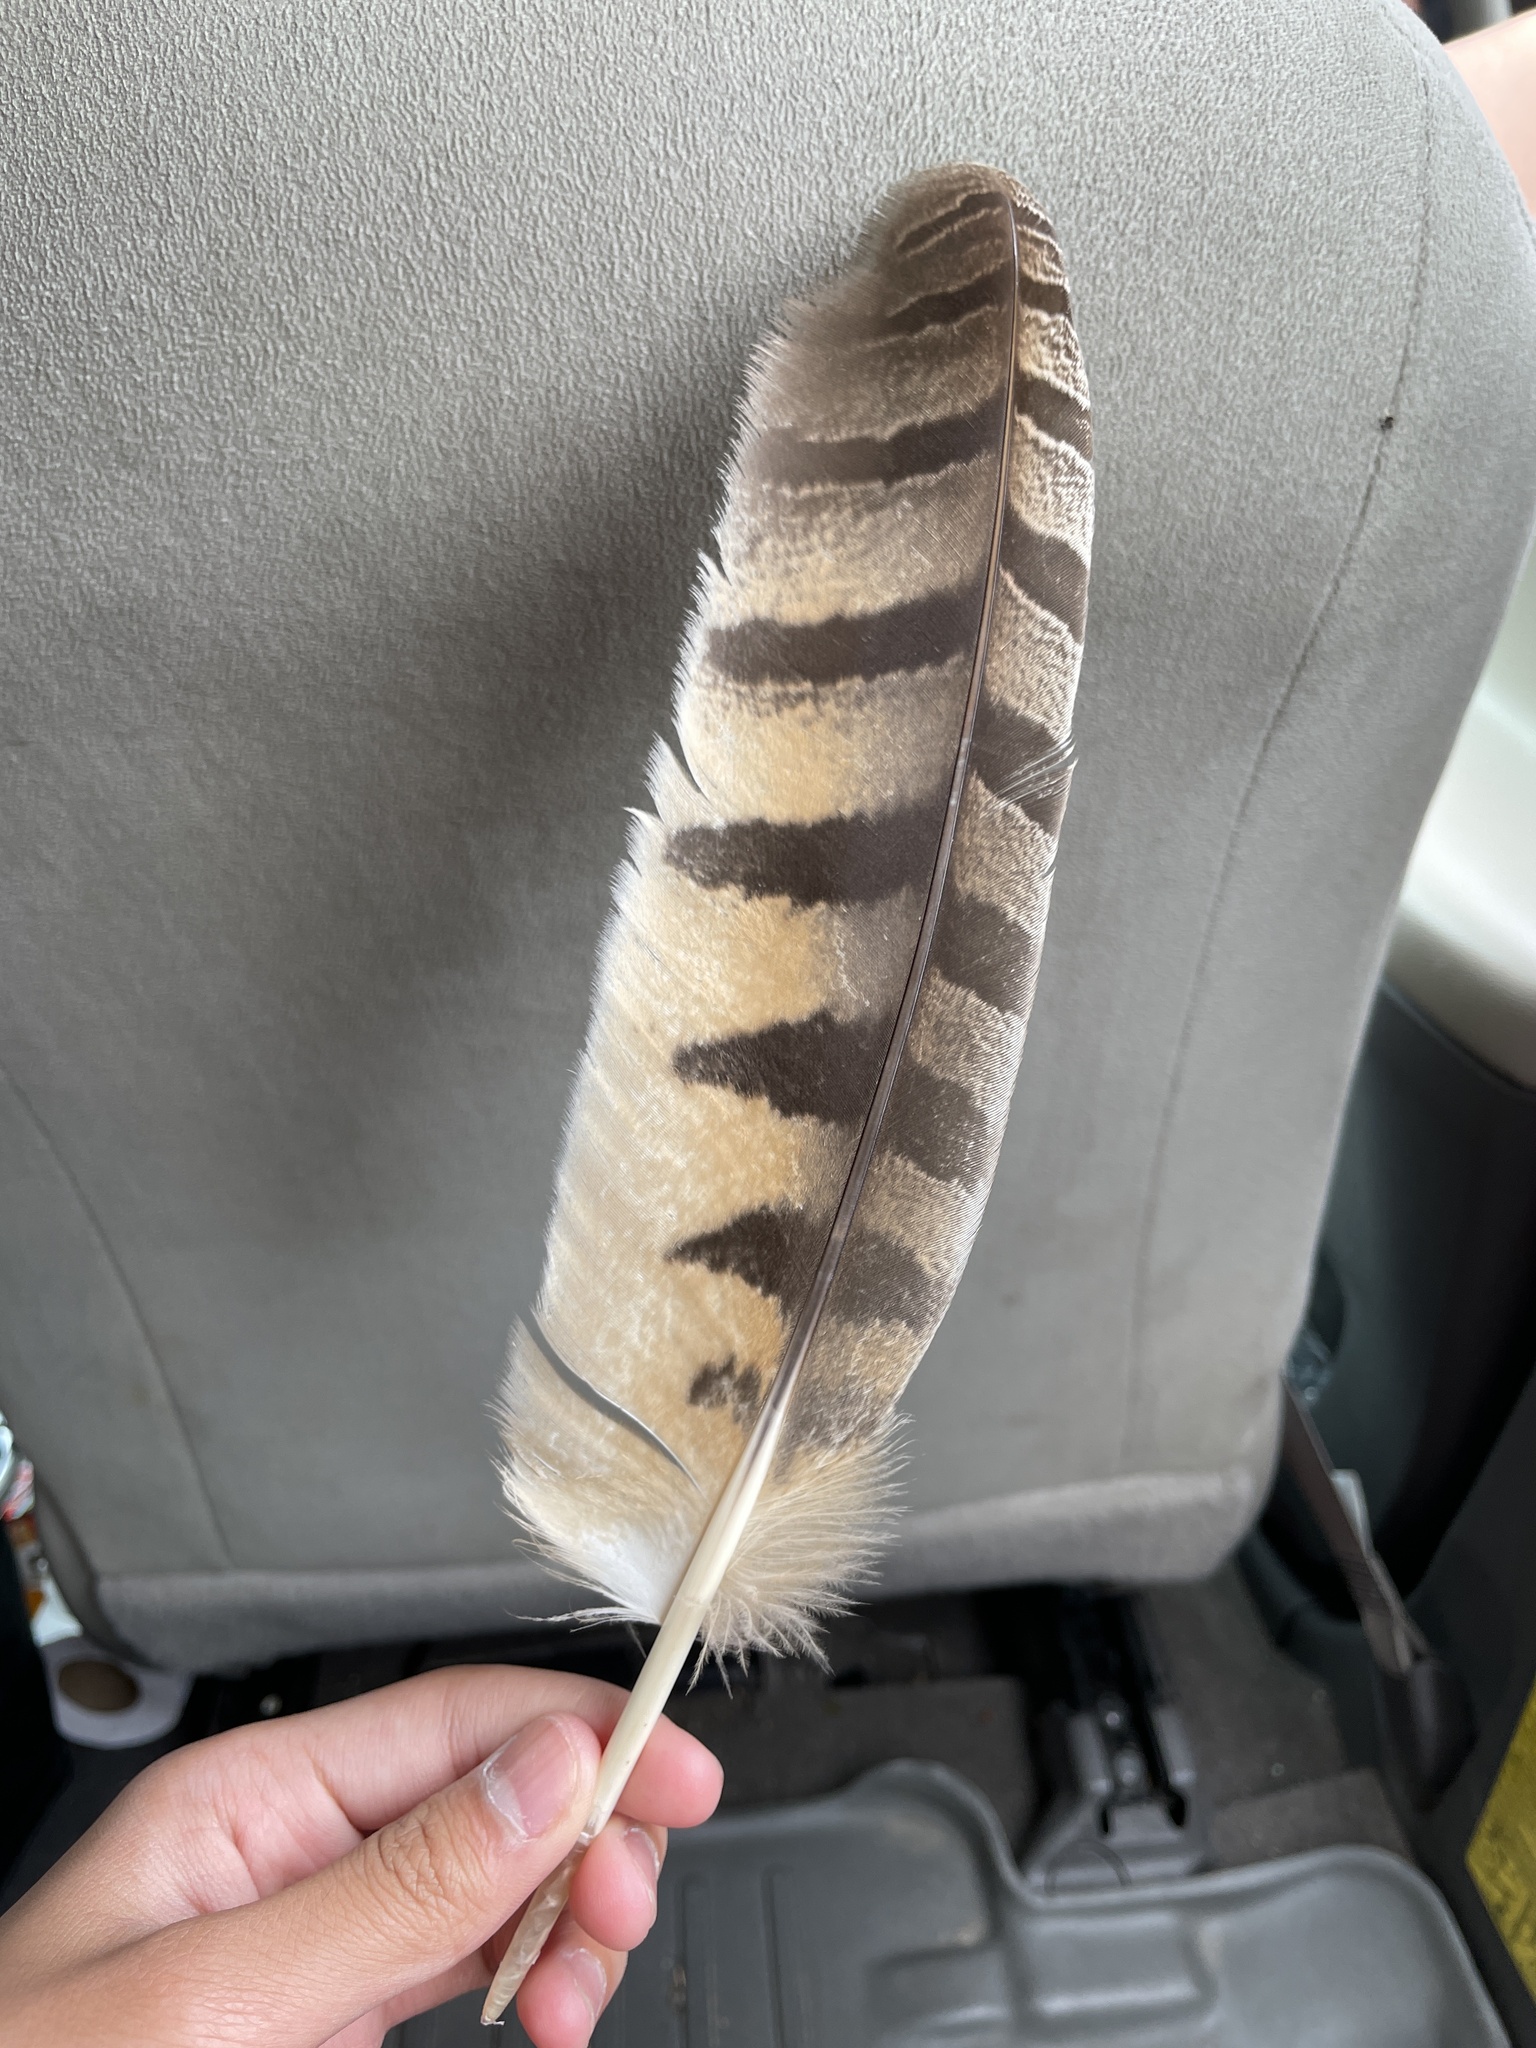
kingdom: Animalia
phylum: Chordata
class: Aves
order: Strigiformes
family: Strigidae
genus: Bubo
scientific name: Bubo virginianus
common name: Great horned owl
